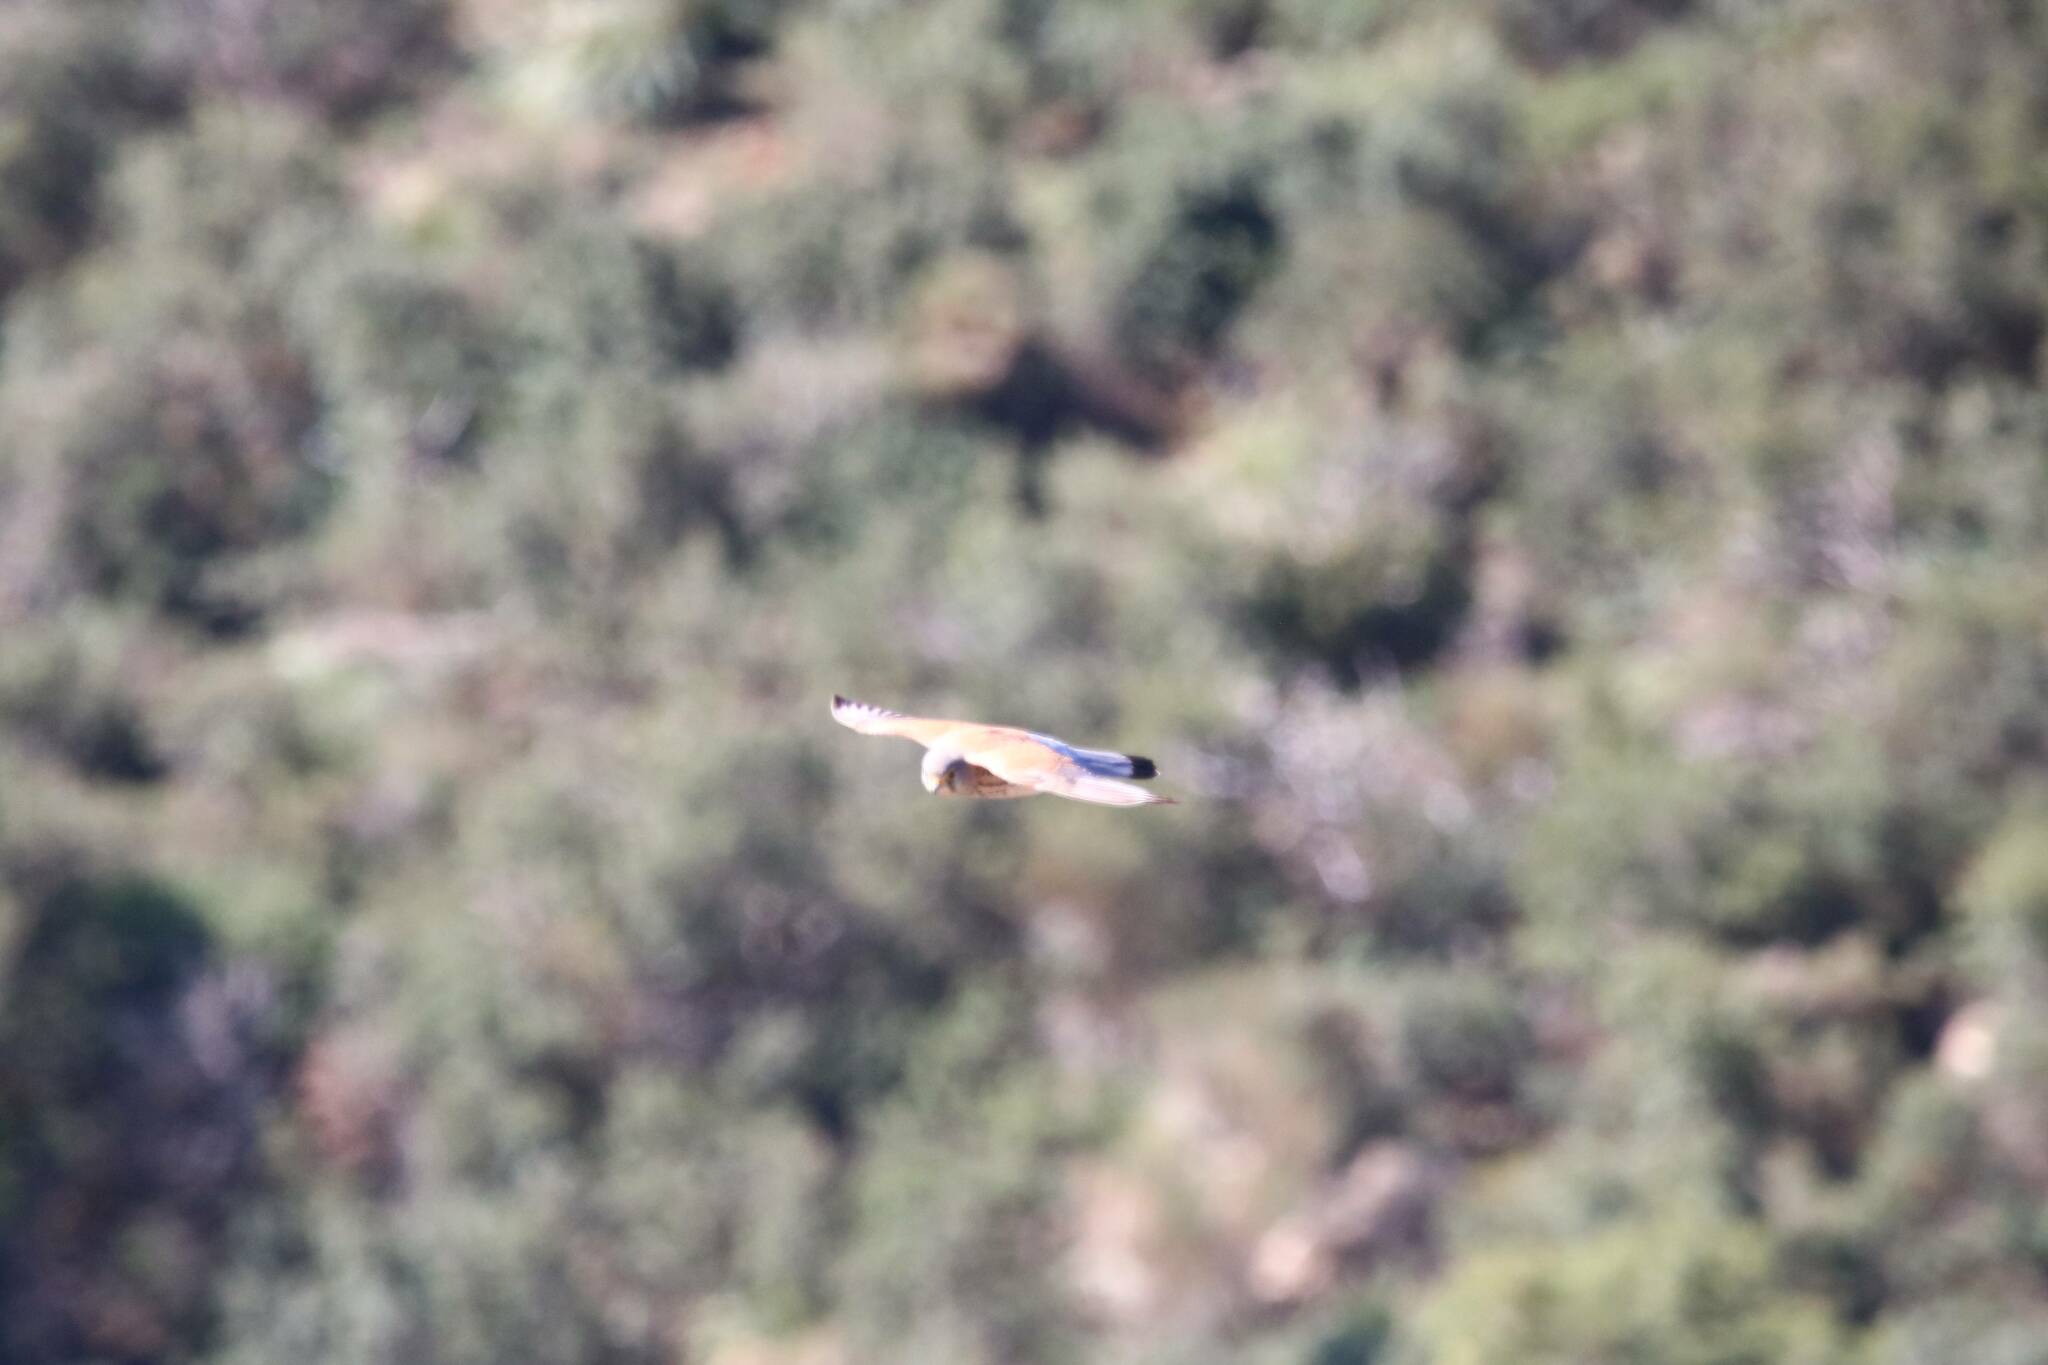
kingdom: Animalia
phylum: Chordata
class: Aves
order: Falconiformes
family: Falconidae
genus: Falco
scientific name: Falco tinnunculus
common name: Common kestrel
